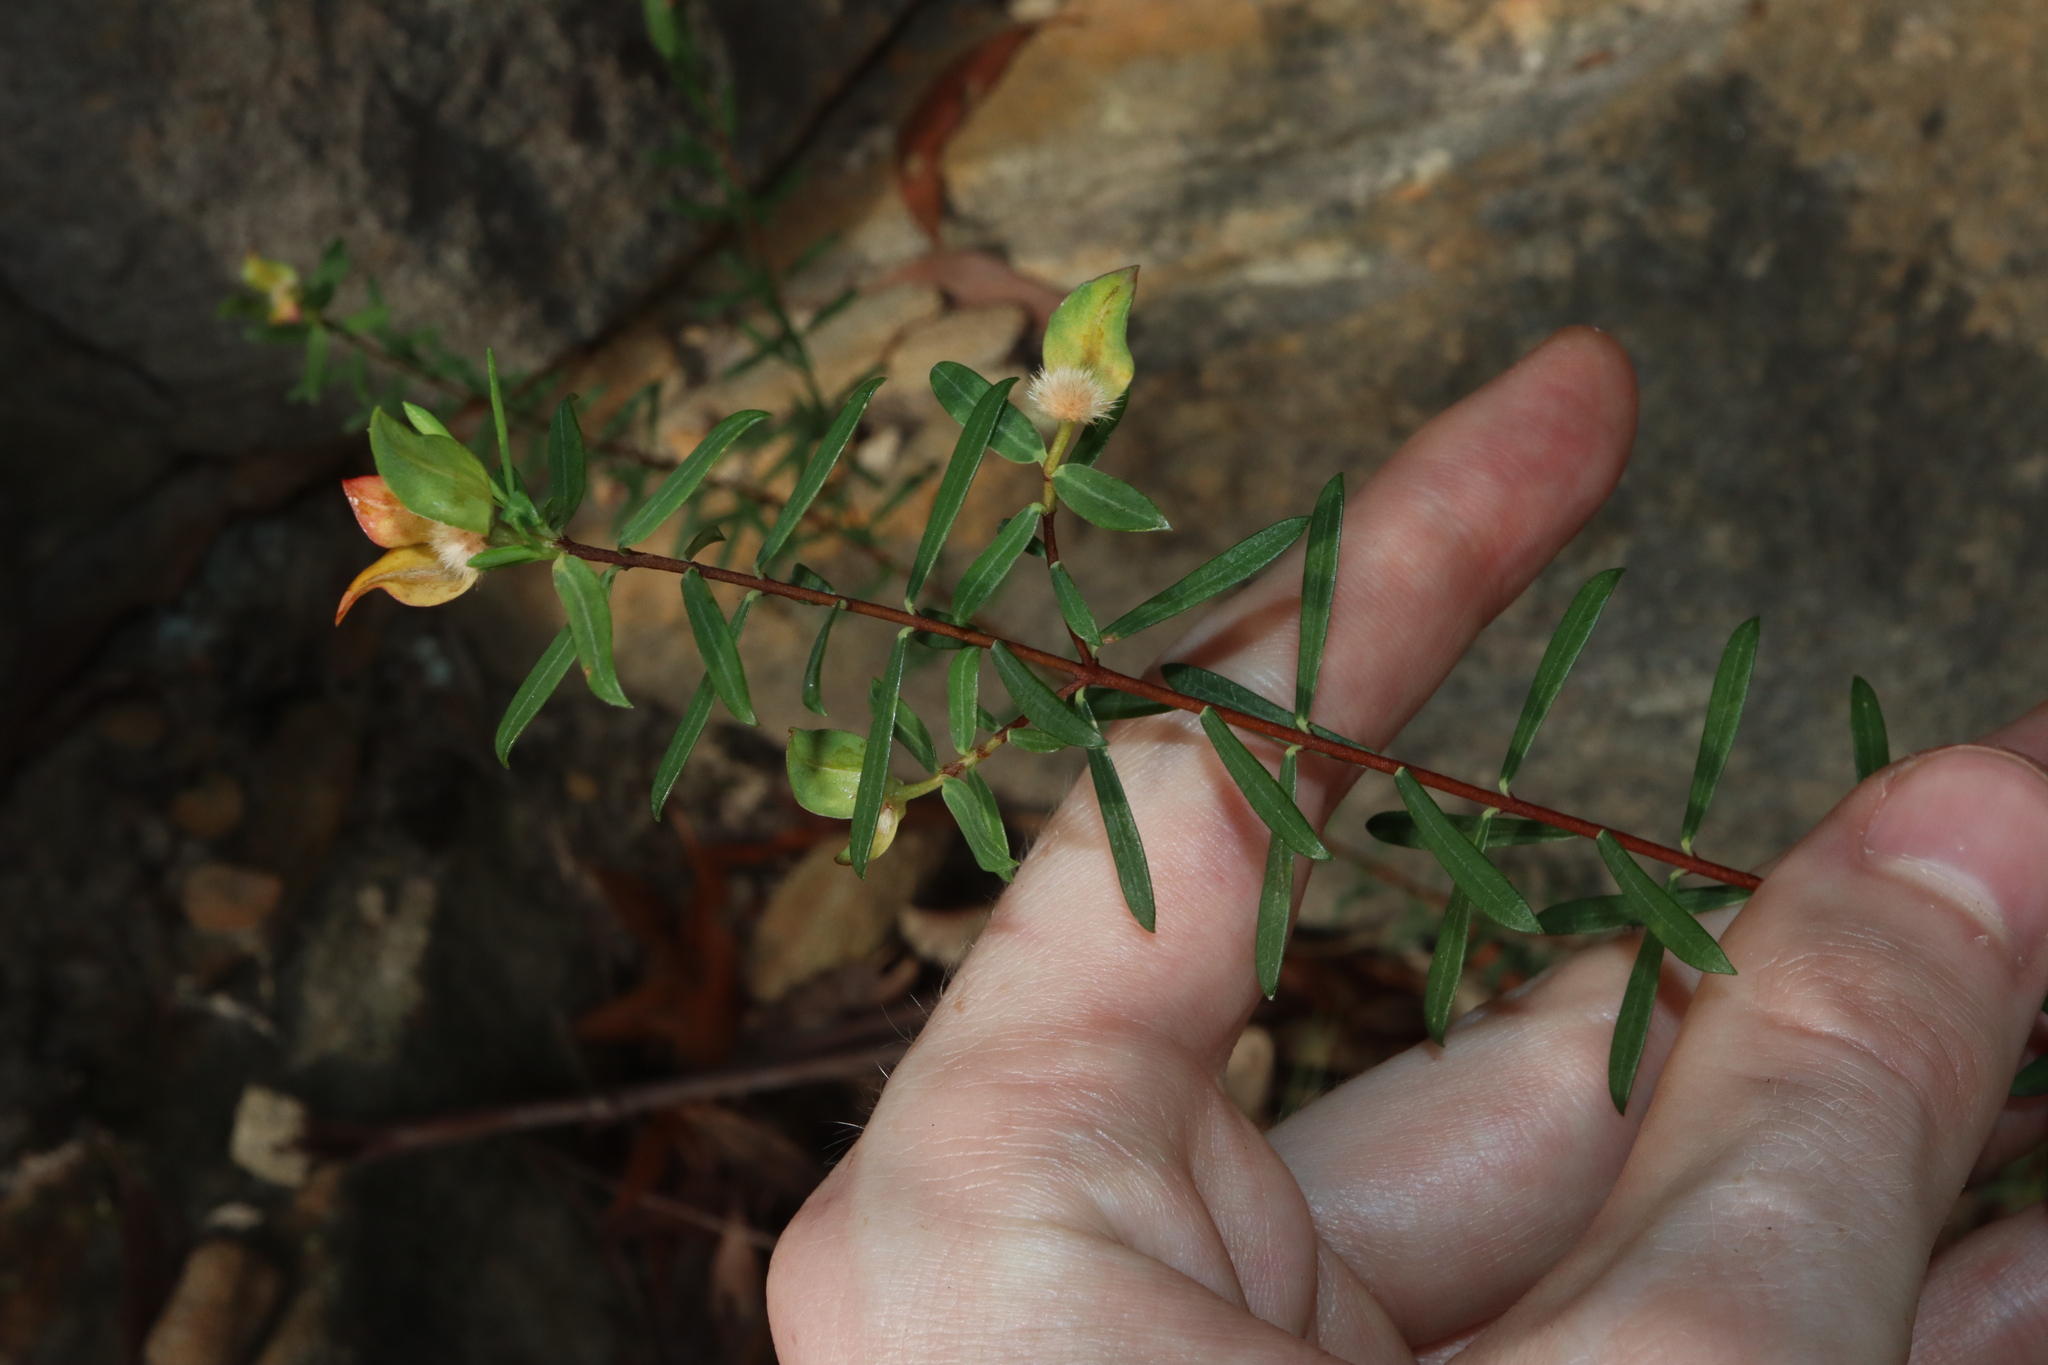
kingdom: Plantae
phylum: Tracheophyta
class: Magnoliopsida
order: Malvales
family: Thymelaeaceae
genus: Pimelea
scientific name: Pimelea linifolia
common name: Queen-of-the-bush
